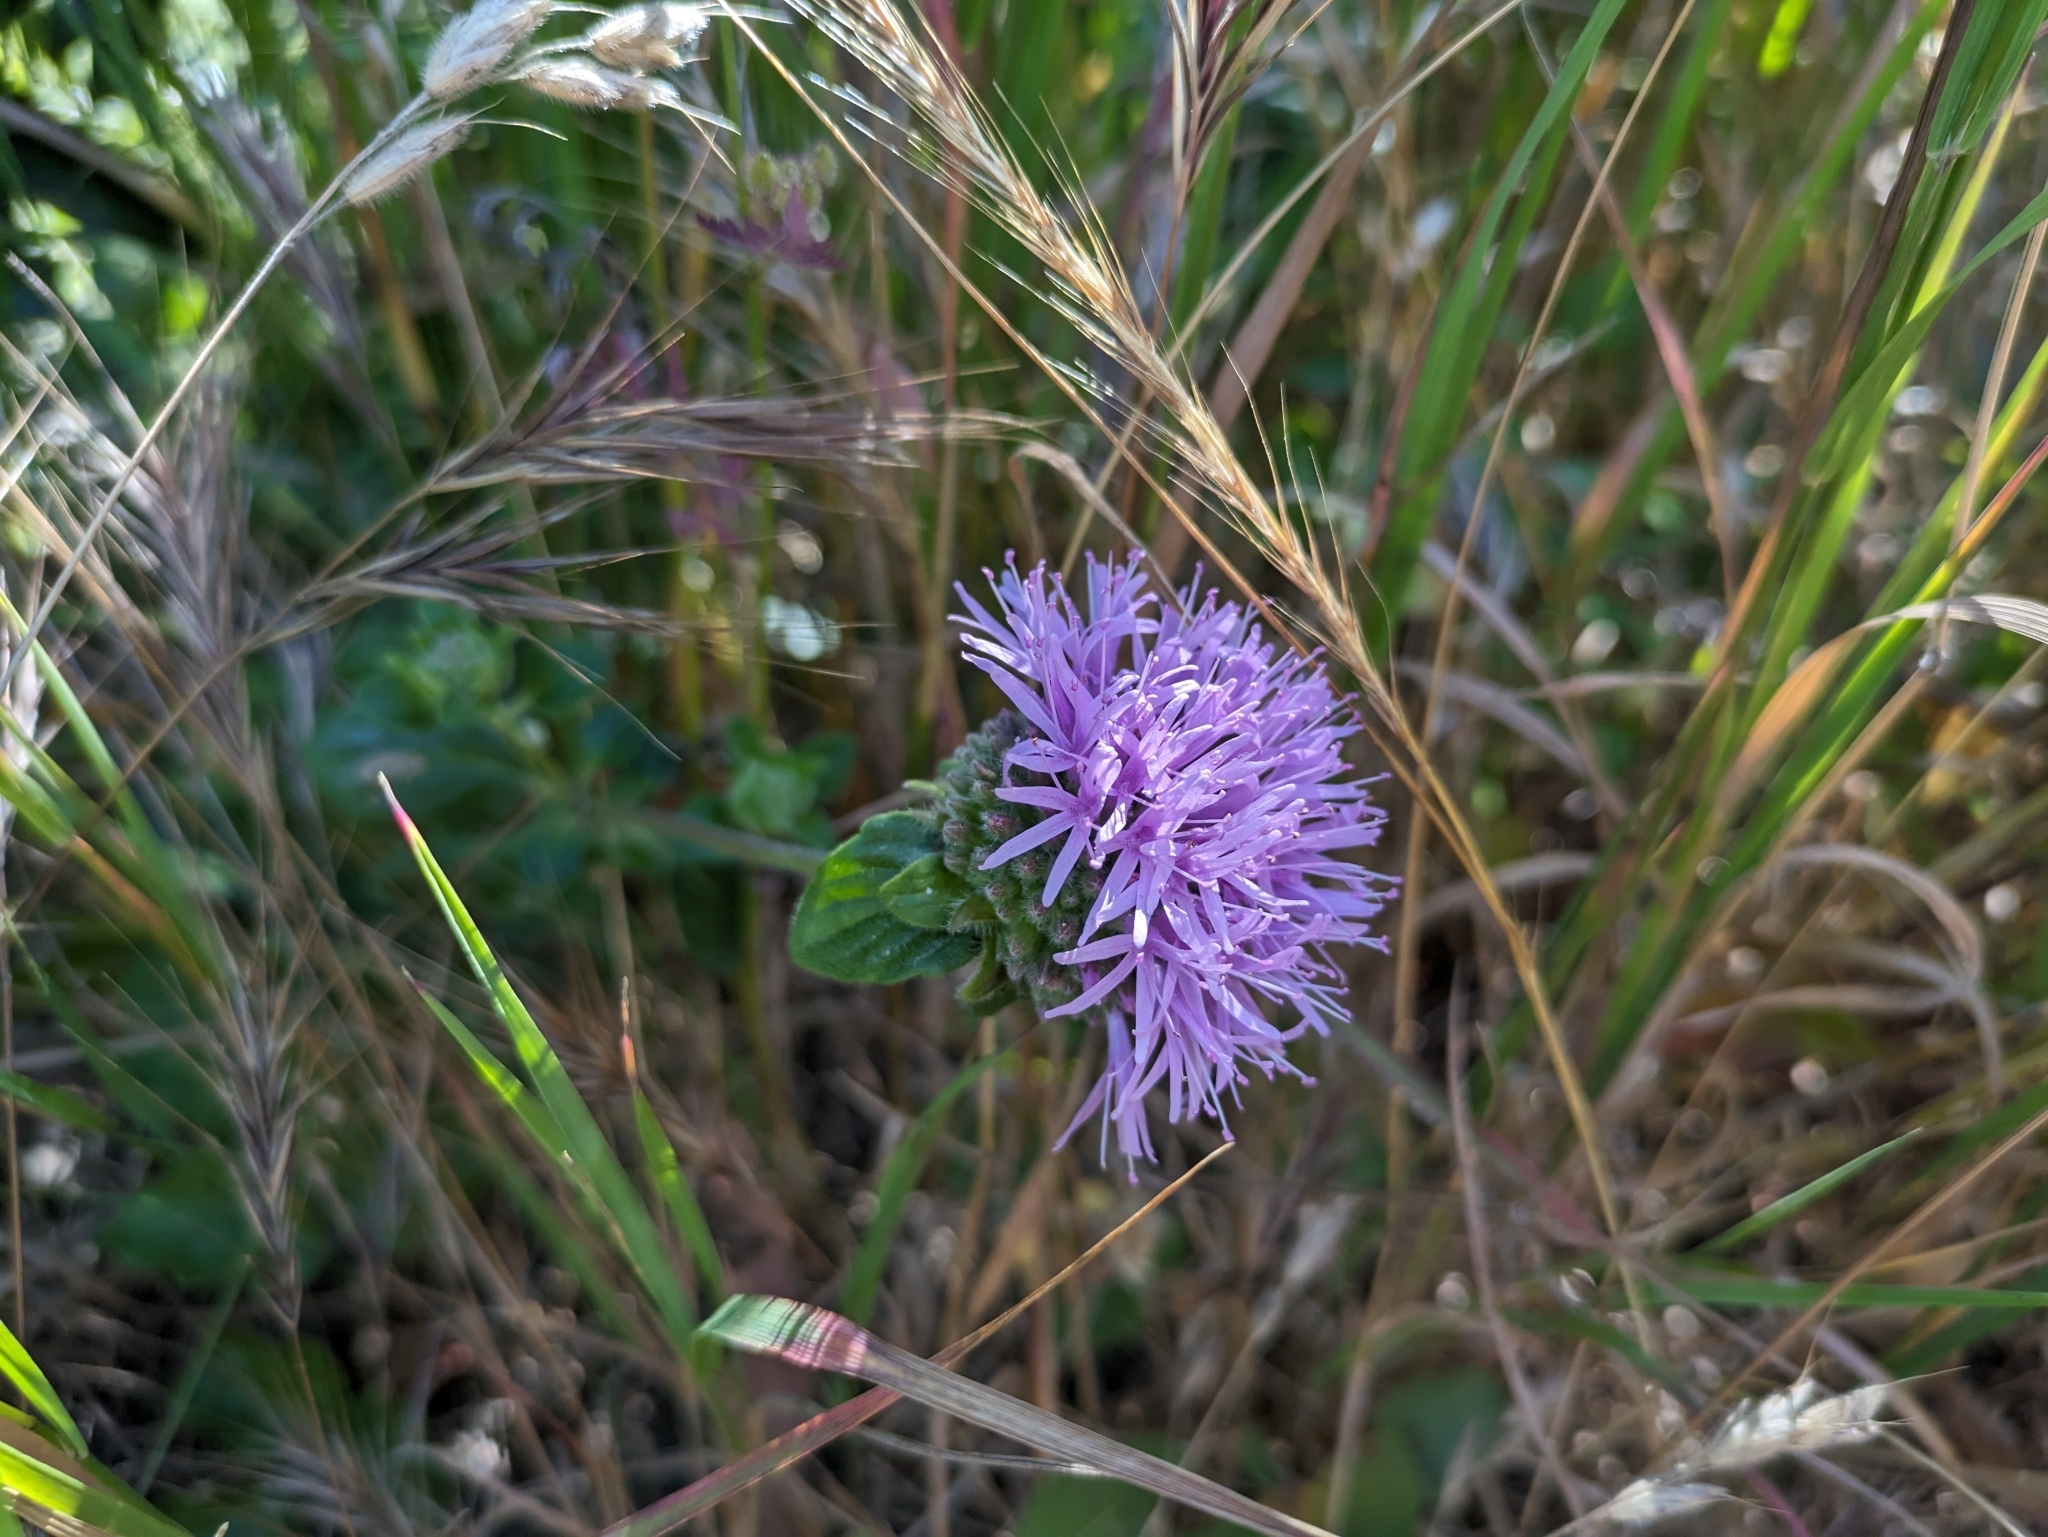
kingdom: Plantae
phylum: Tracheophyta
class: Magnoliopsida
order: Lamiales
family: Lamiaceae
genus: Monardella
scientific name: Monardella odoratissima
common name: Pacific monardella
